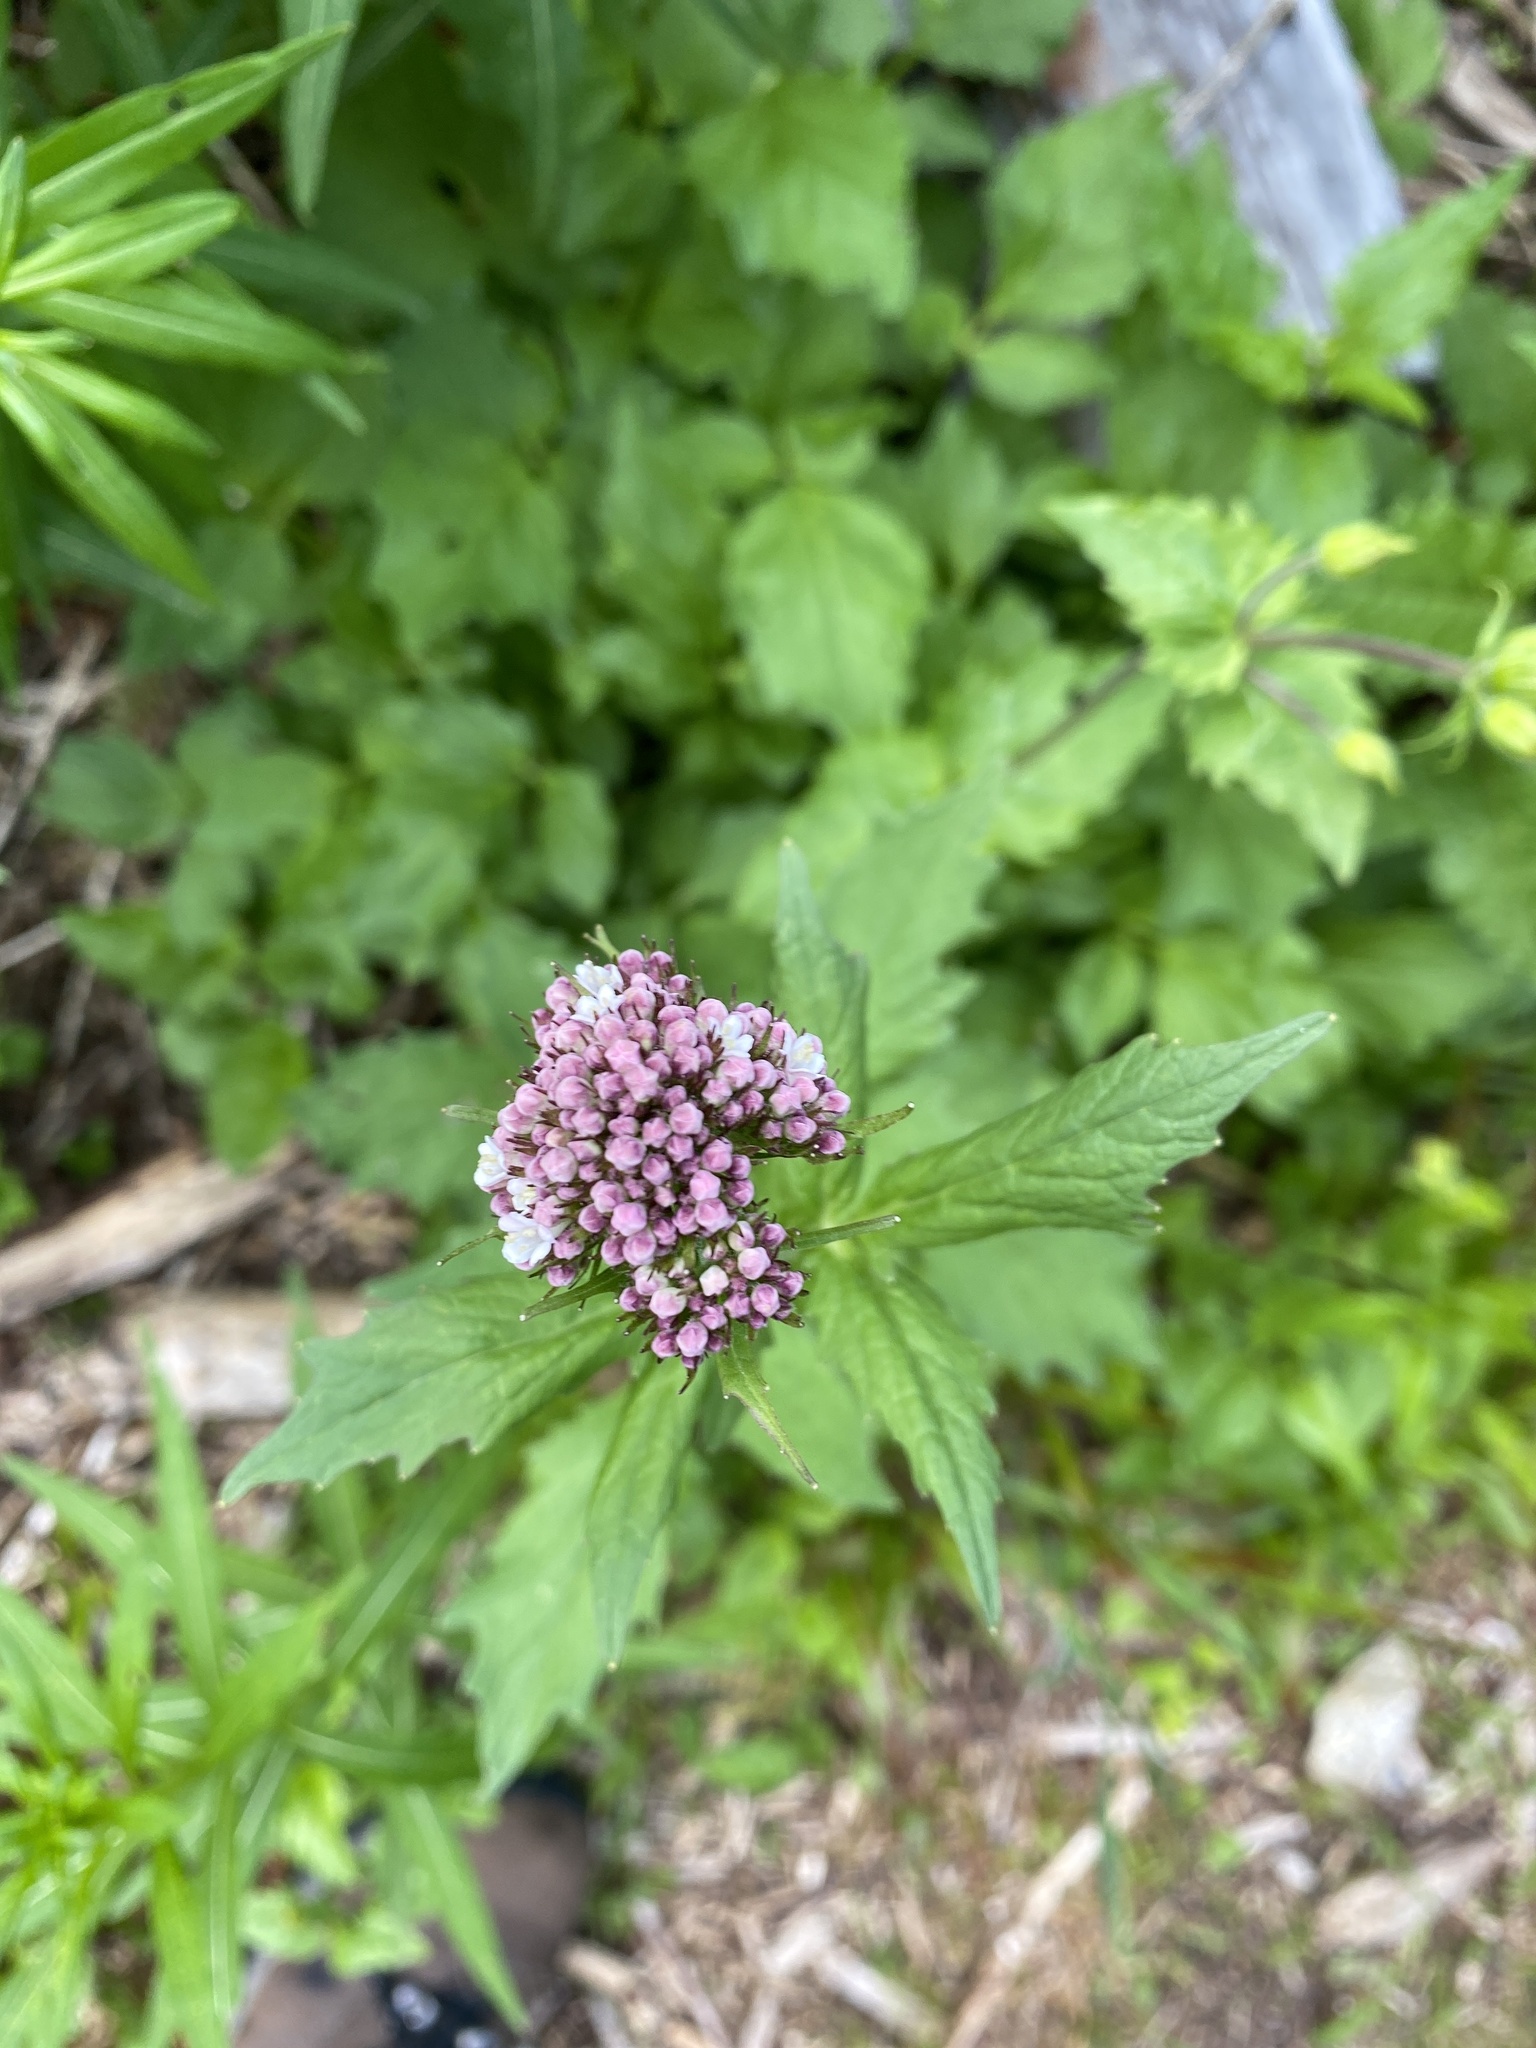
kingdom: Plantae
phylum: Tracheophyta
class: Magnoliopsida
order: Dipsacales
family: Caprifoliaceae
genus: Valeriana
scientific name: Valeriana sitchensis
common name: Pacific valerian
